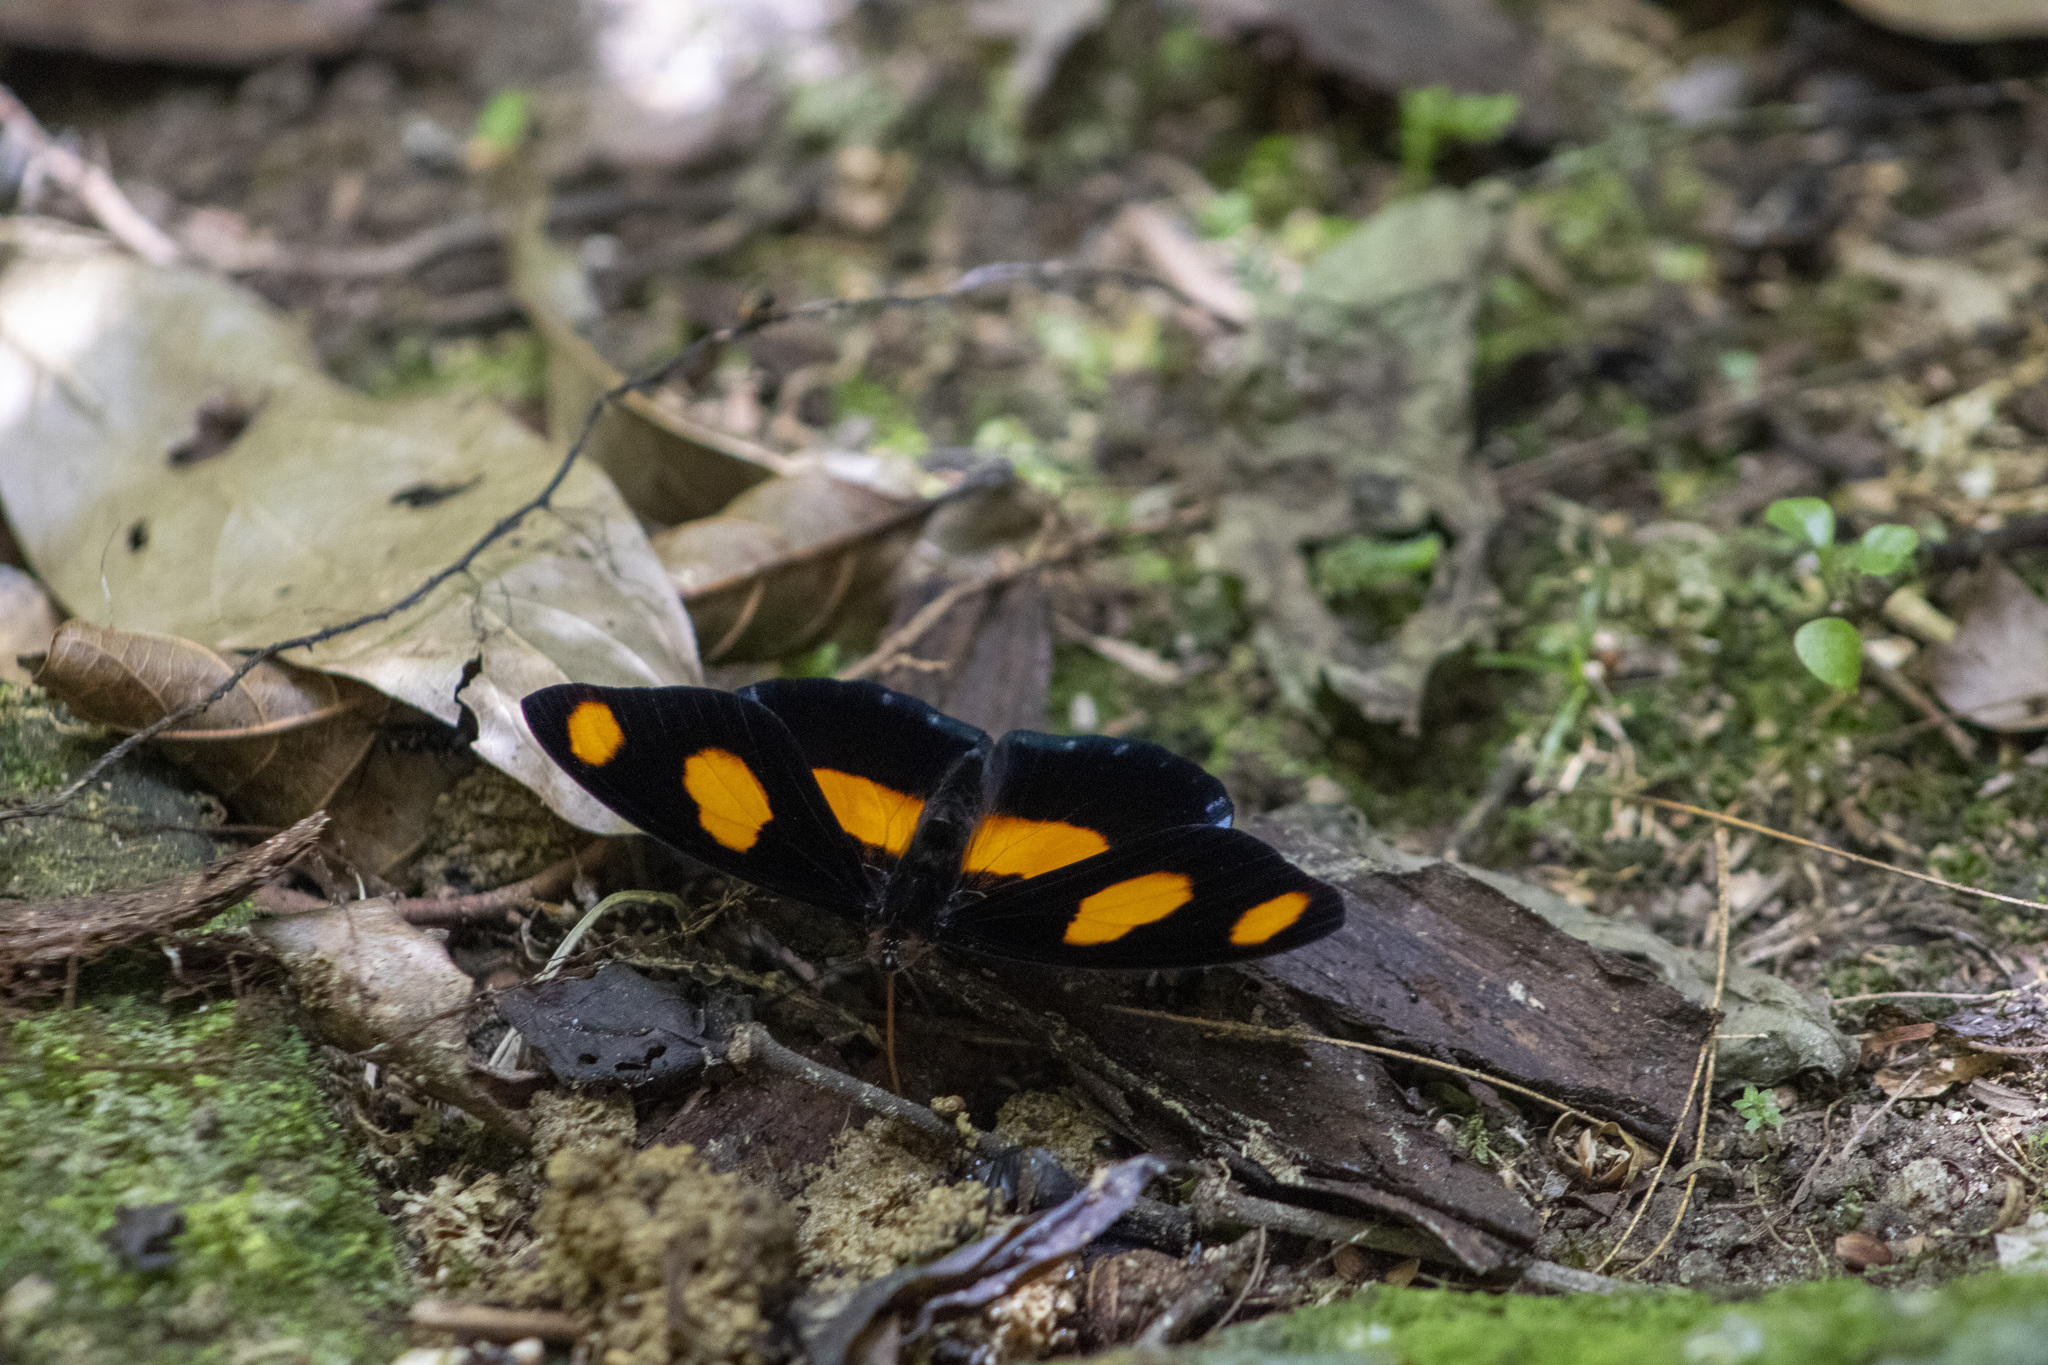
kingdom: Animalia
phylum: Arthropoda
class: Insecta
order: Lepidoptera
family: Nymphalidae
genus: Catonephele
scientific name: Catonephele numilia
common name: Blue-frosted banner
